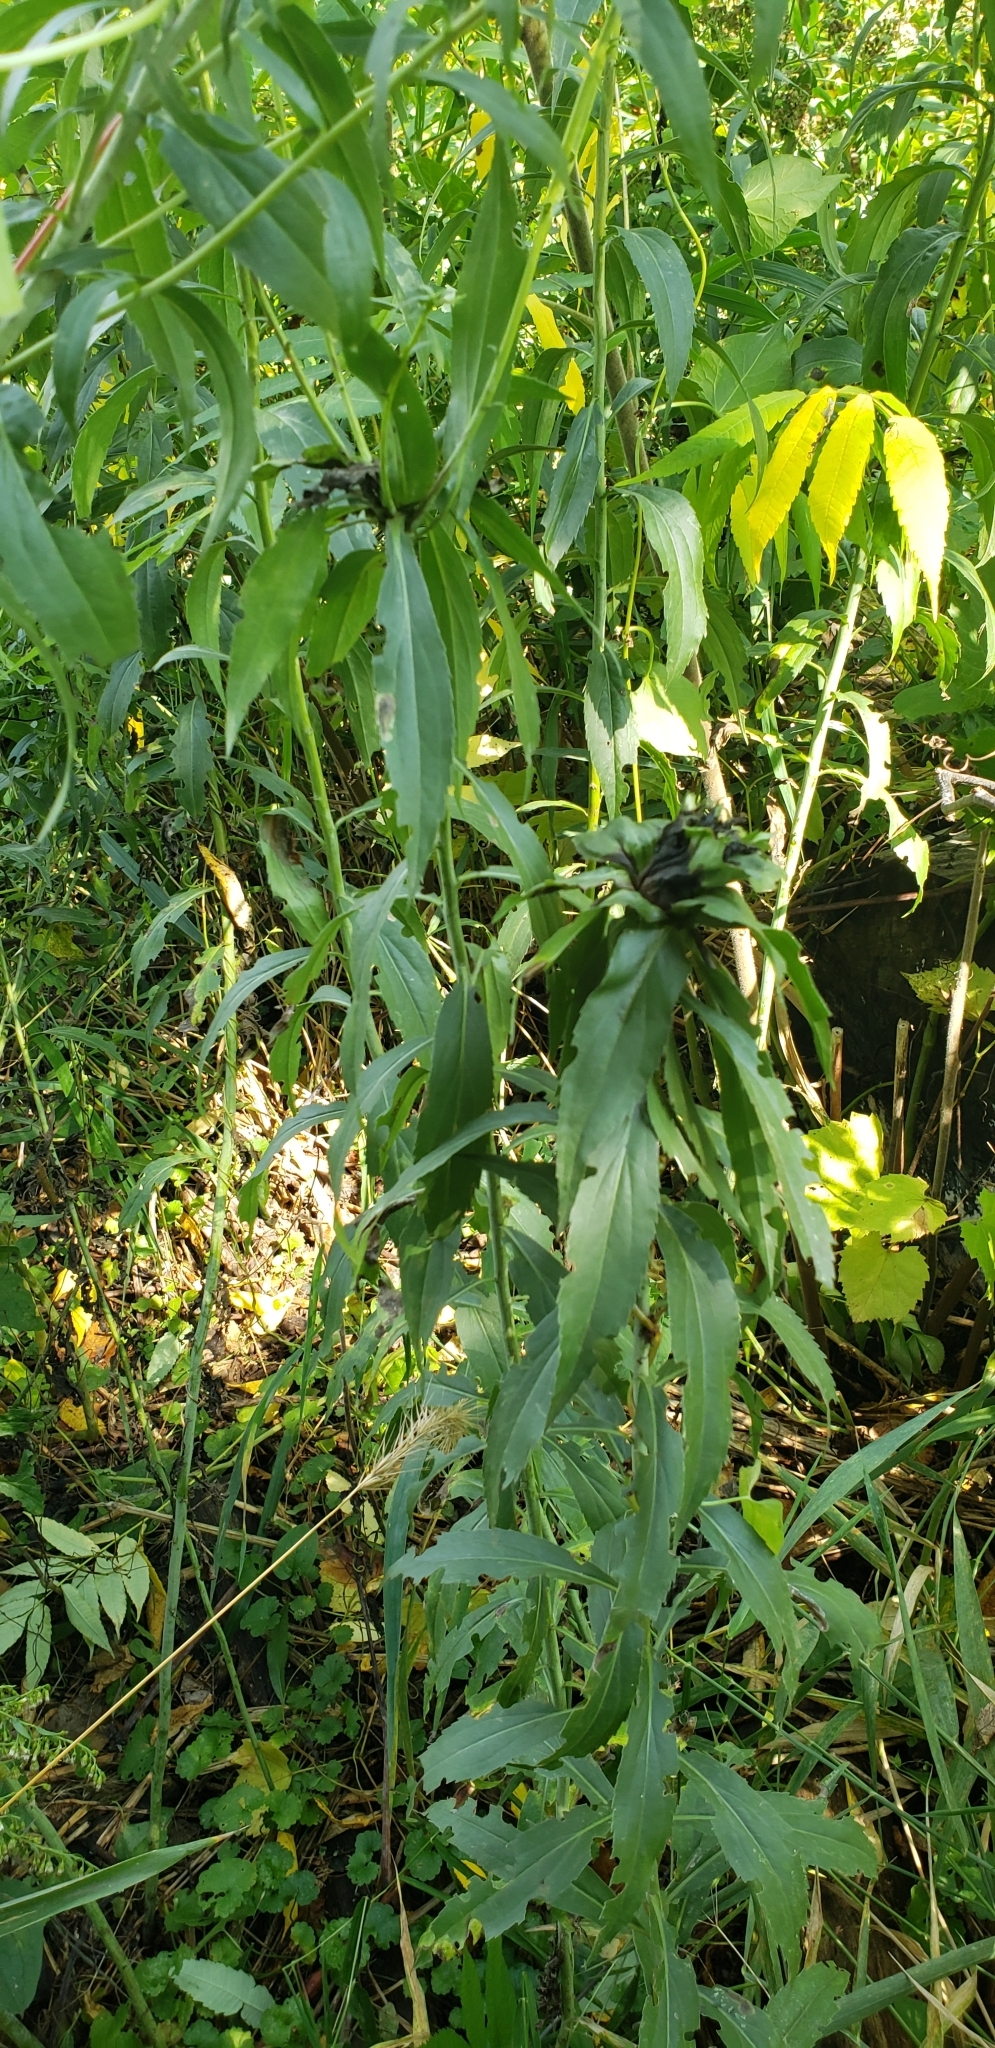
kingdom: Animalia
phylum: Arthropoda
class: Insecta
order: Diptera
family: Cecidomyiidae
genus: Rhopalomyia
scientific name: Rhopalomyia capitata
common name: Giant goldenrod bunch gall midge
